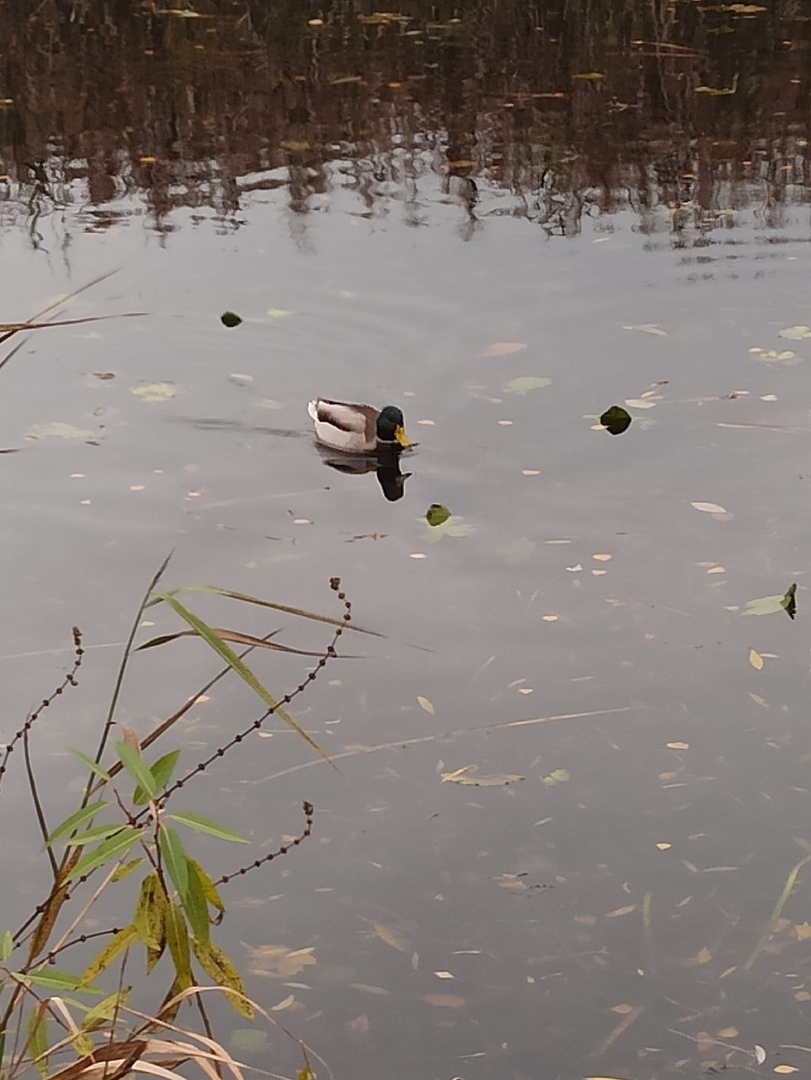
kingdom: Animalia
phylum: Chordata
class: Aves
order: Anseriformes
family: Anatidae
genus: Anas
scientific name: Anas platyrhynchos
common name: Mallard
